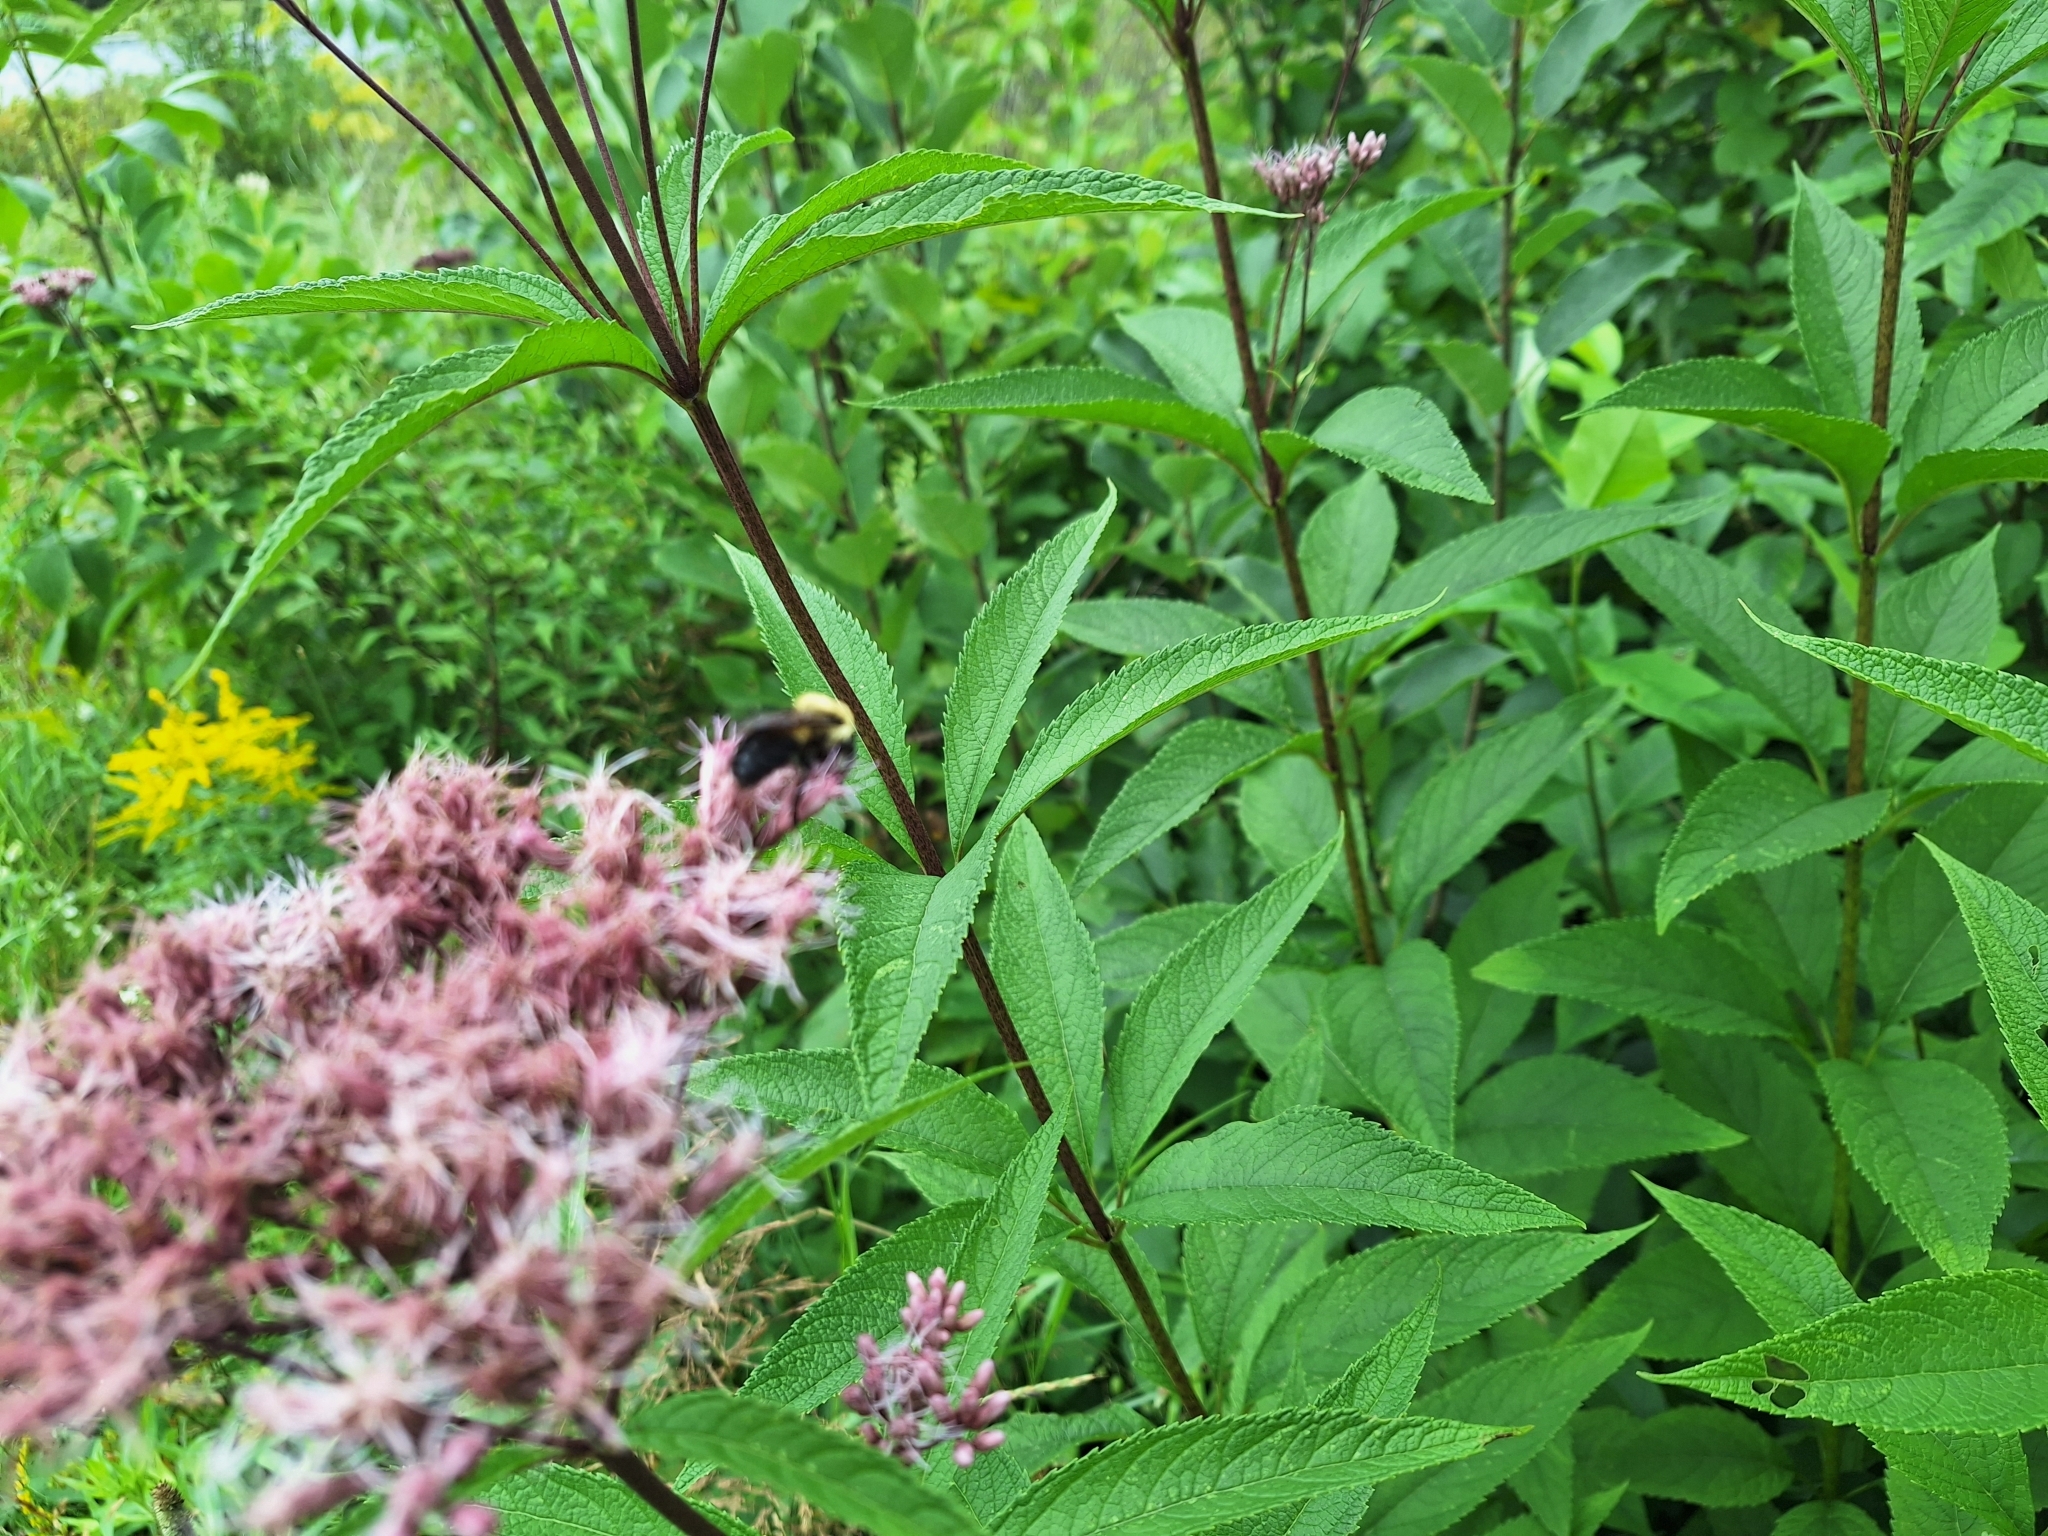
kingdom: Animalia
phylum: Arthropoda
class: Insecta
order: Hymenoptera
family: Apidae
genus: Bombus
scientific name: Bombus impatiens
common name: Common eastern bumble bee
